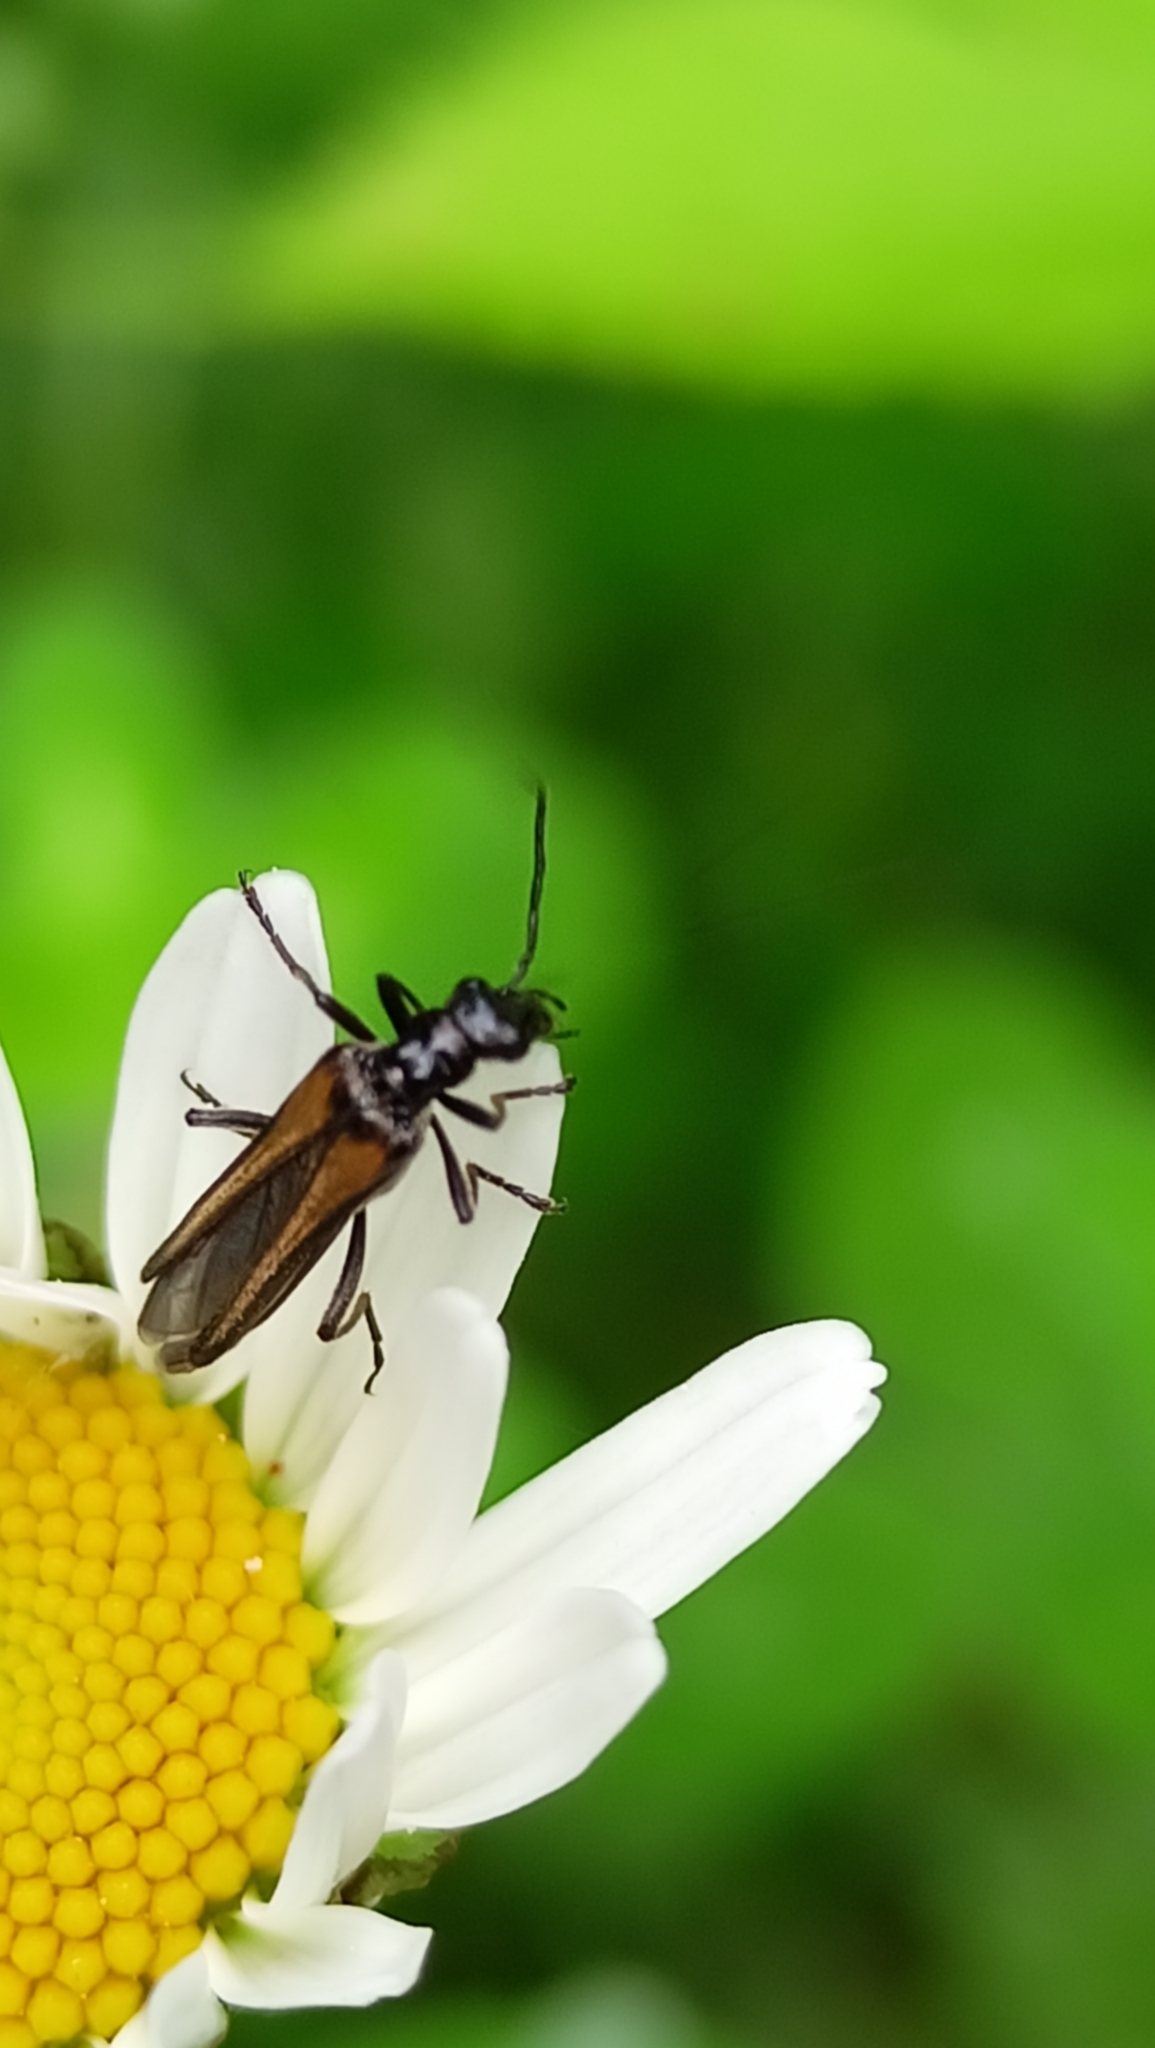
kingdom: Animalia
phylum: Arthropoda
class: Insecta
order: Coleoptera
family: Oedemeridae
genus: Oedemera
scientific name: Oedemera pthysica
